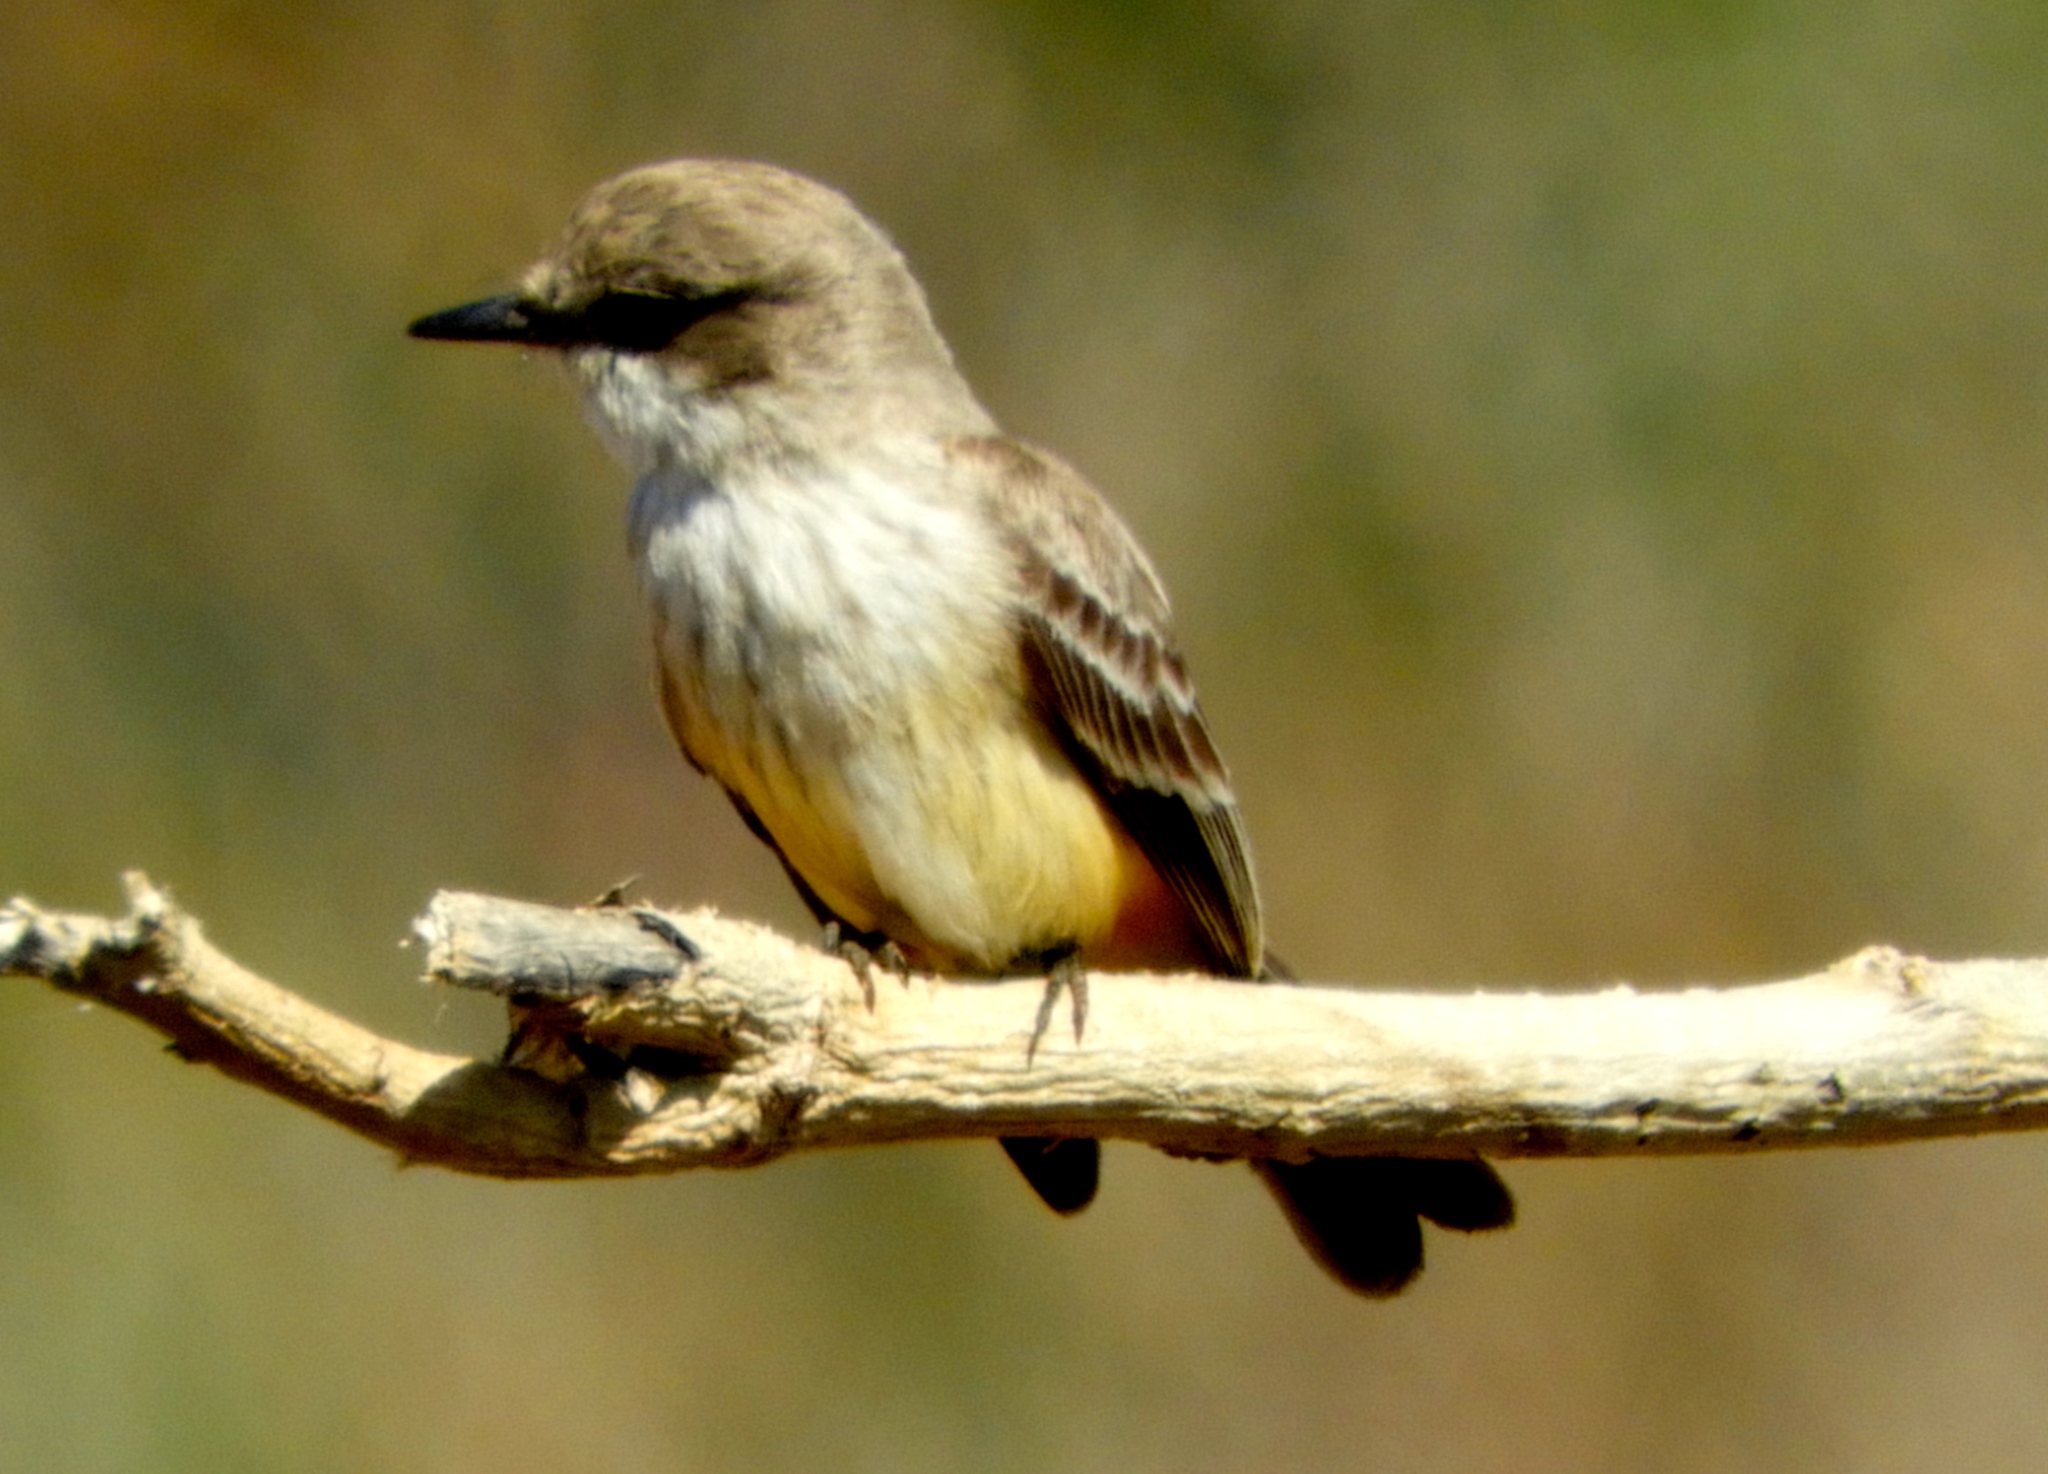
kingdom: Animalia
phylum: Chordata
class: Aves
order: Passeriformes
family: Tyrannidae
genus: Pyrocephalus
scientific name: Pyrocephalus rubinus
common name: Vermilion flycatcher
